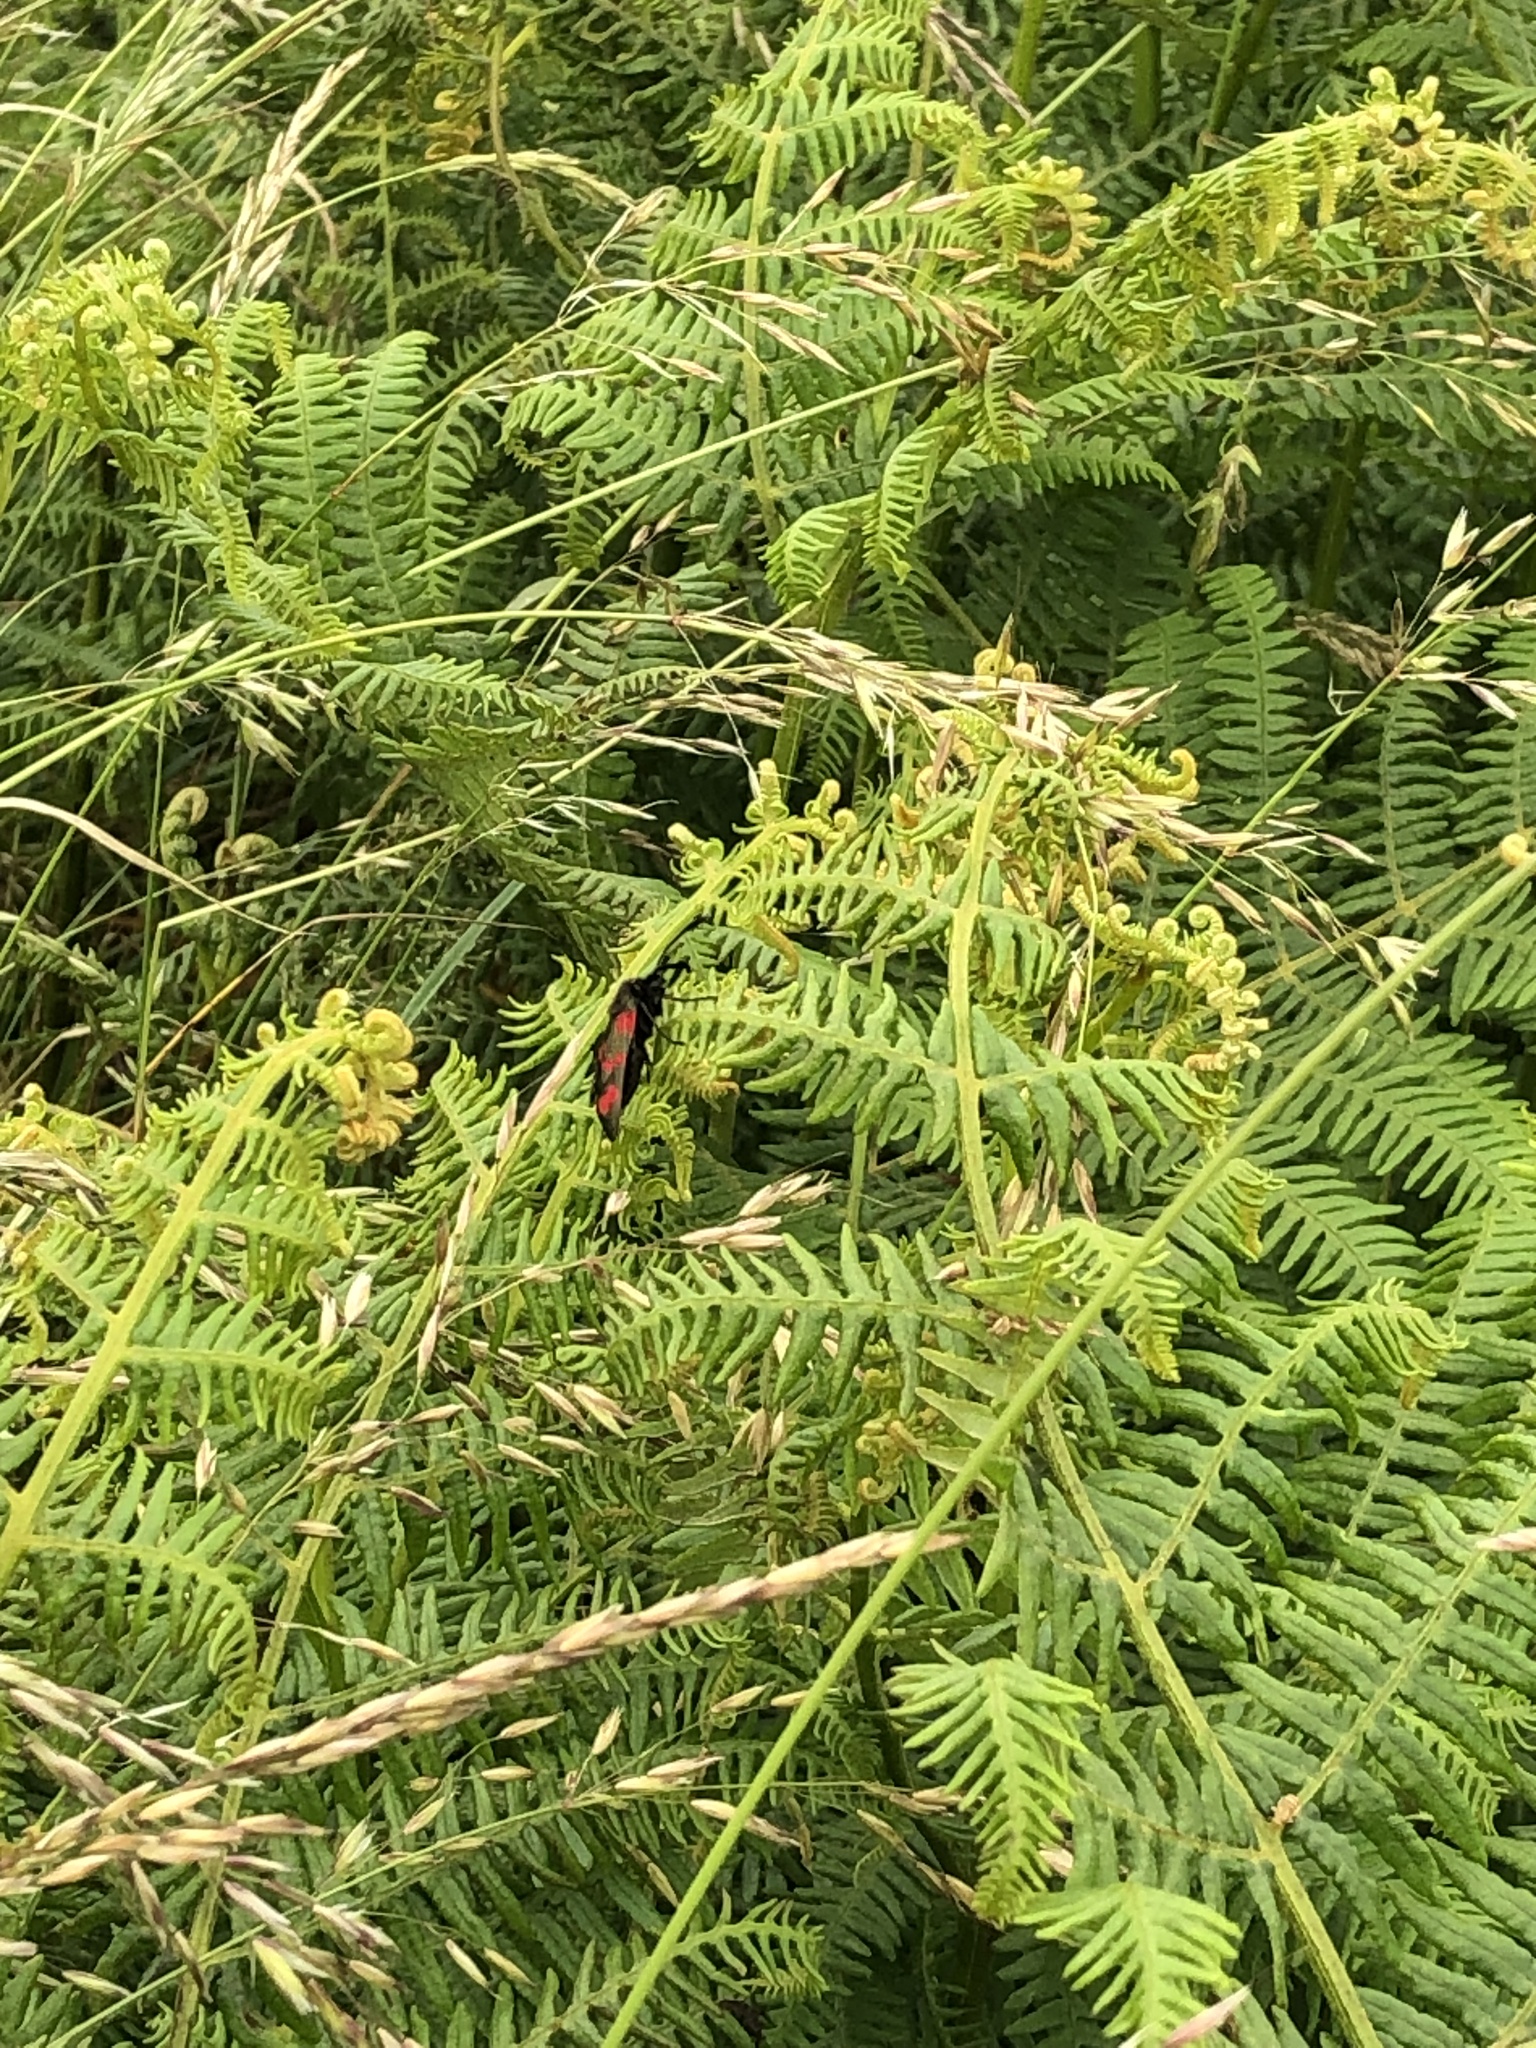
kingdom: Animalia
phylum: Arthropoda
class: Insecta
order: Lepidoptera
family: Zygaenidae
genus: Zygaena
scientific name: Zygaena filipendulae
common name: Six-spot burnet
